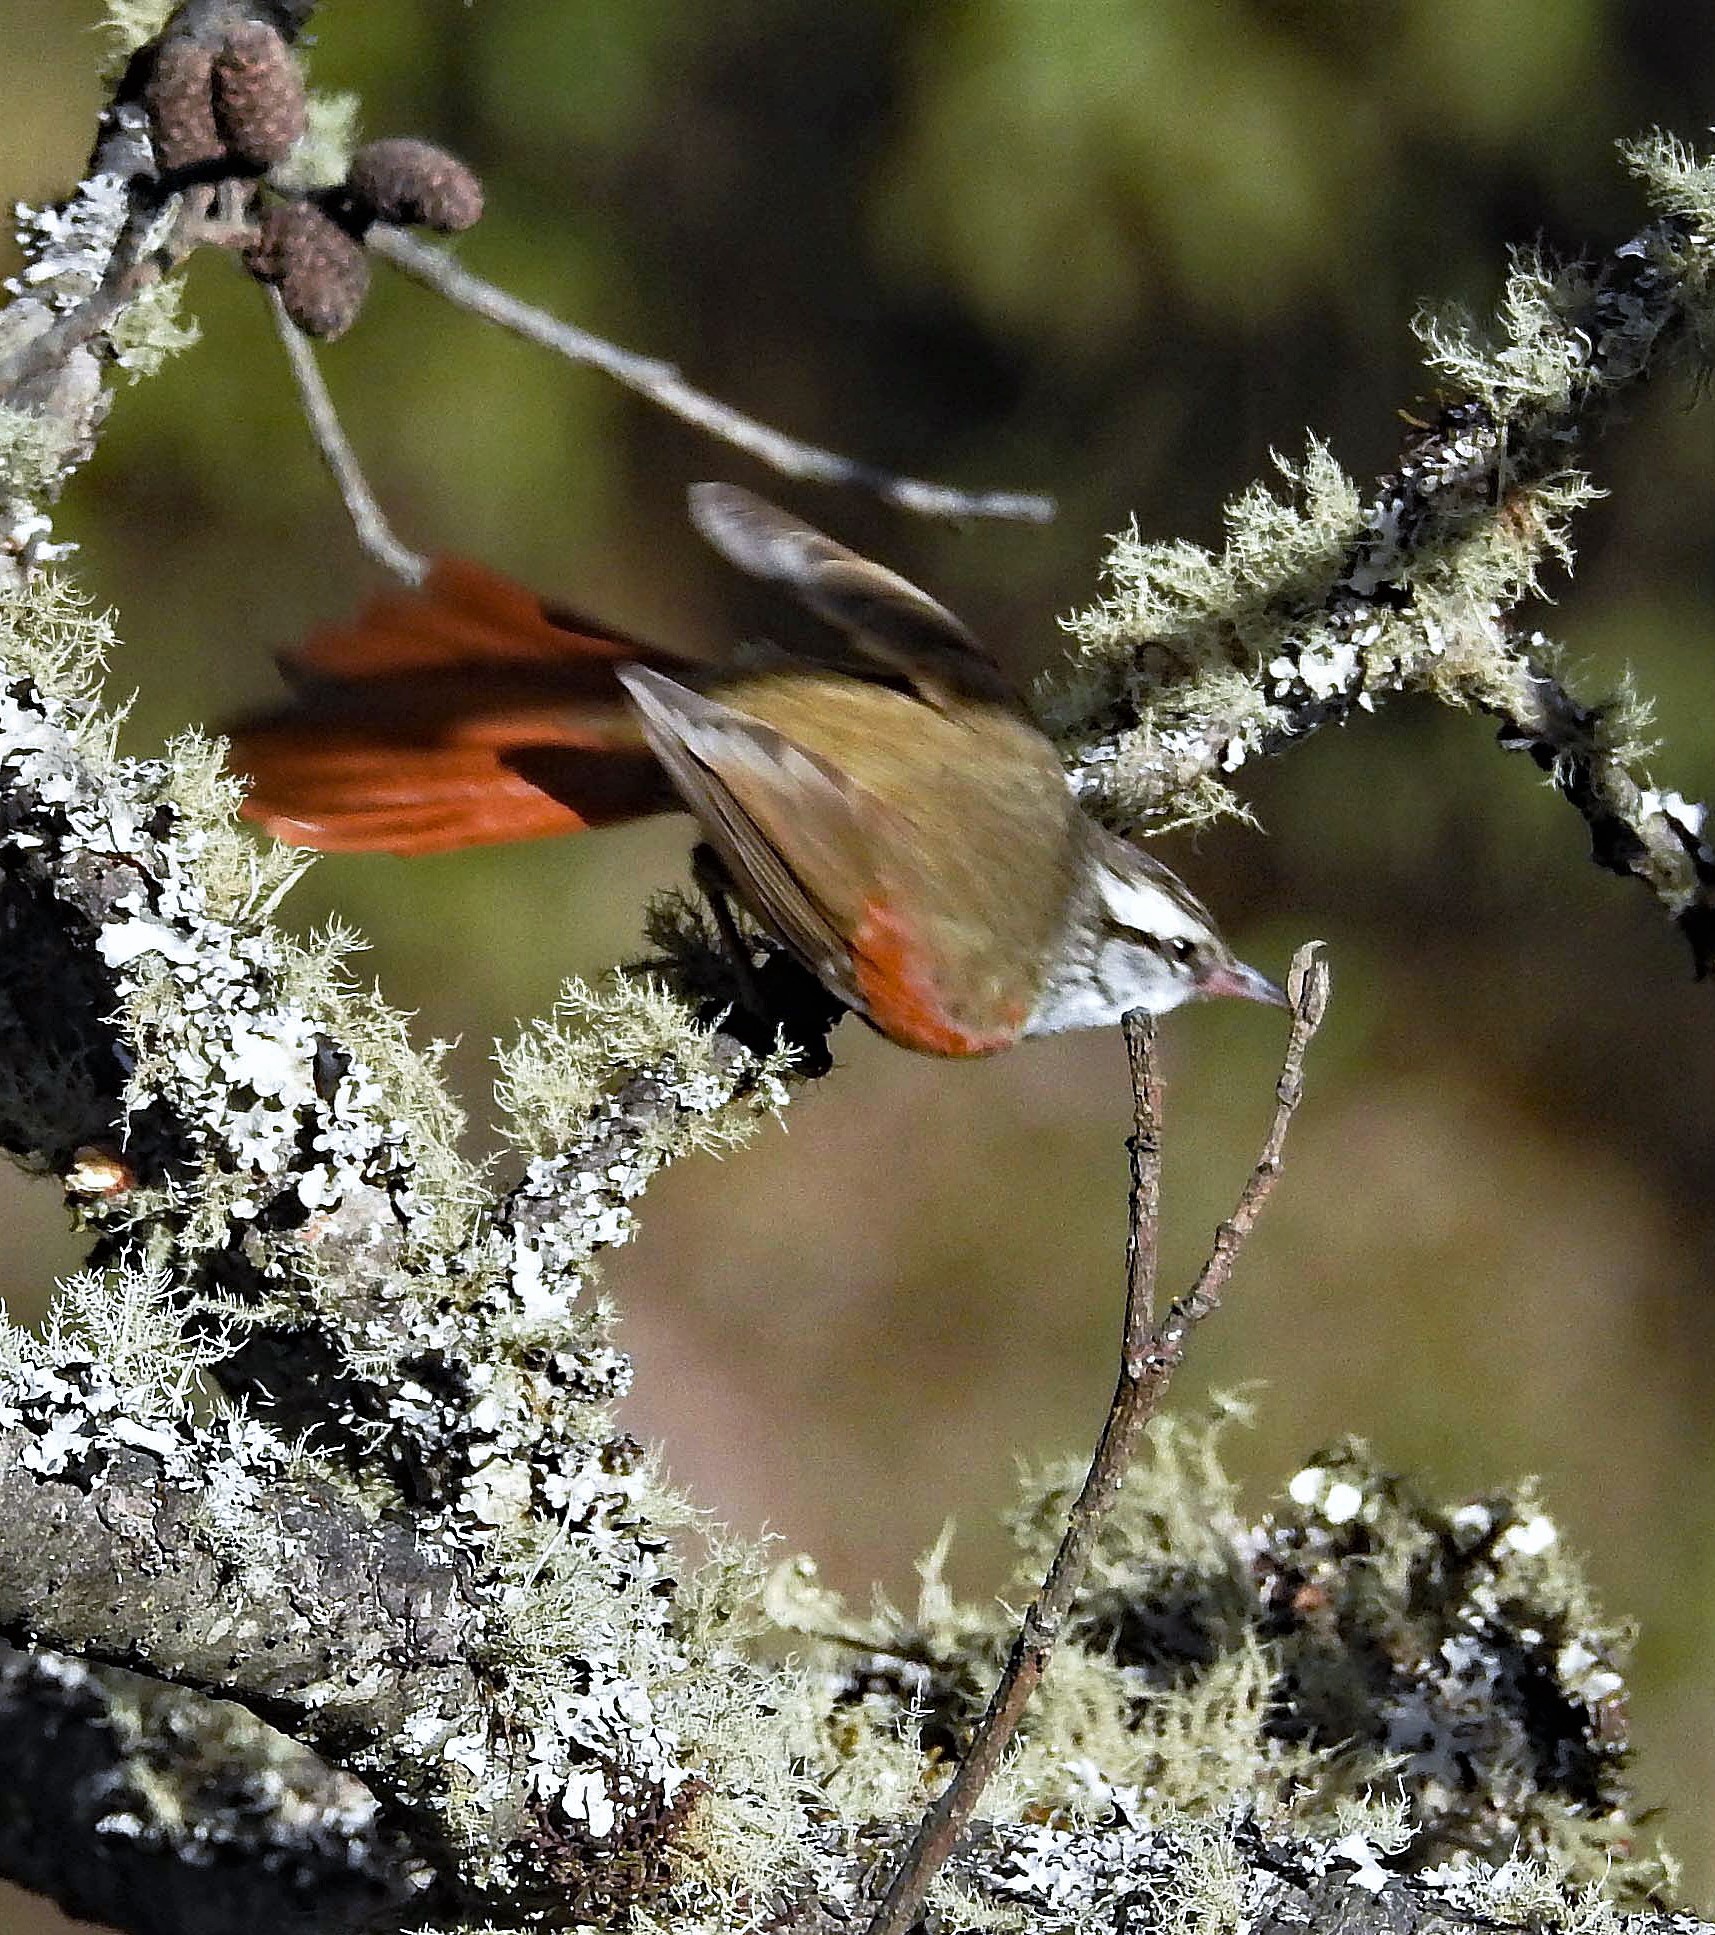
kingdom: Animalia
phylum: Chordata
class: Aves
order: Passeriformes
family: Furnariidae
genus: Cranioleuca
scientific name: Cranioleuca pyrrhophia
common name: Stripe-crowned spinetail
